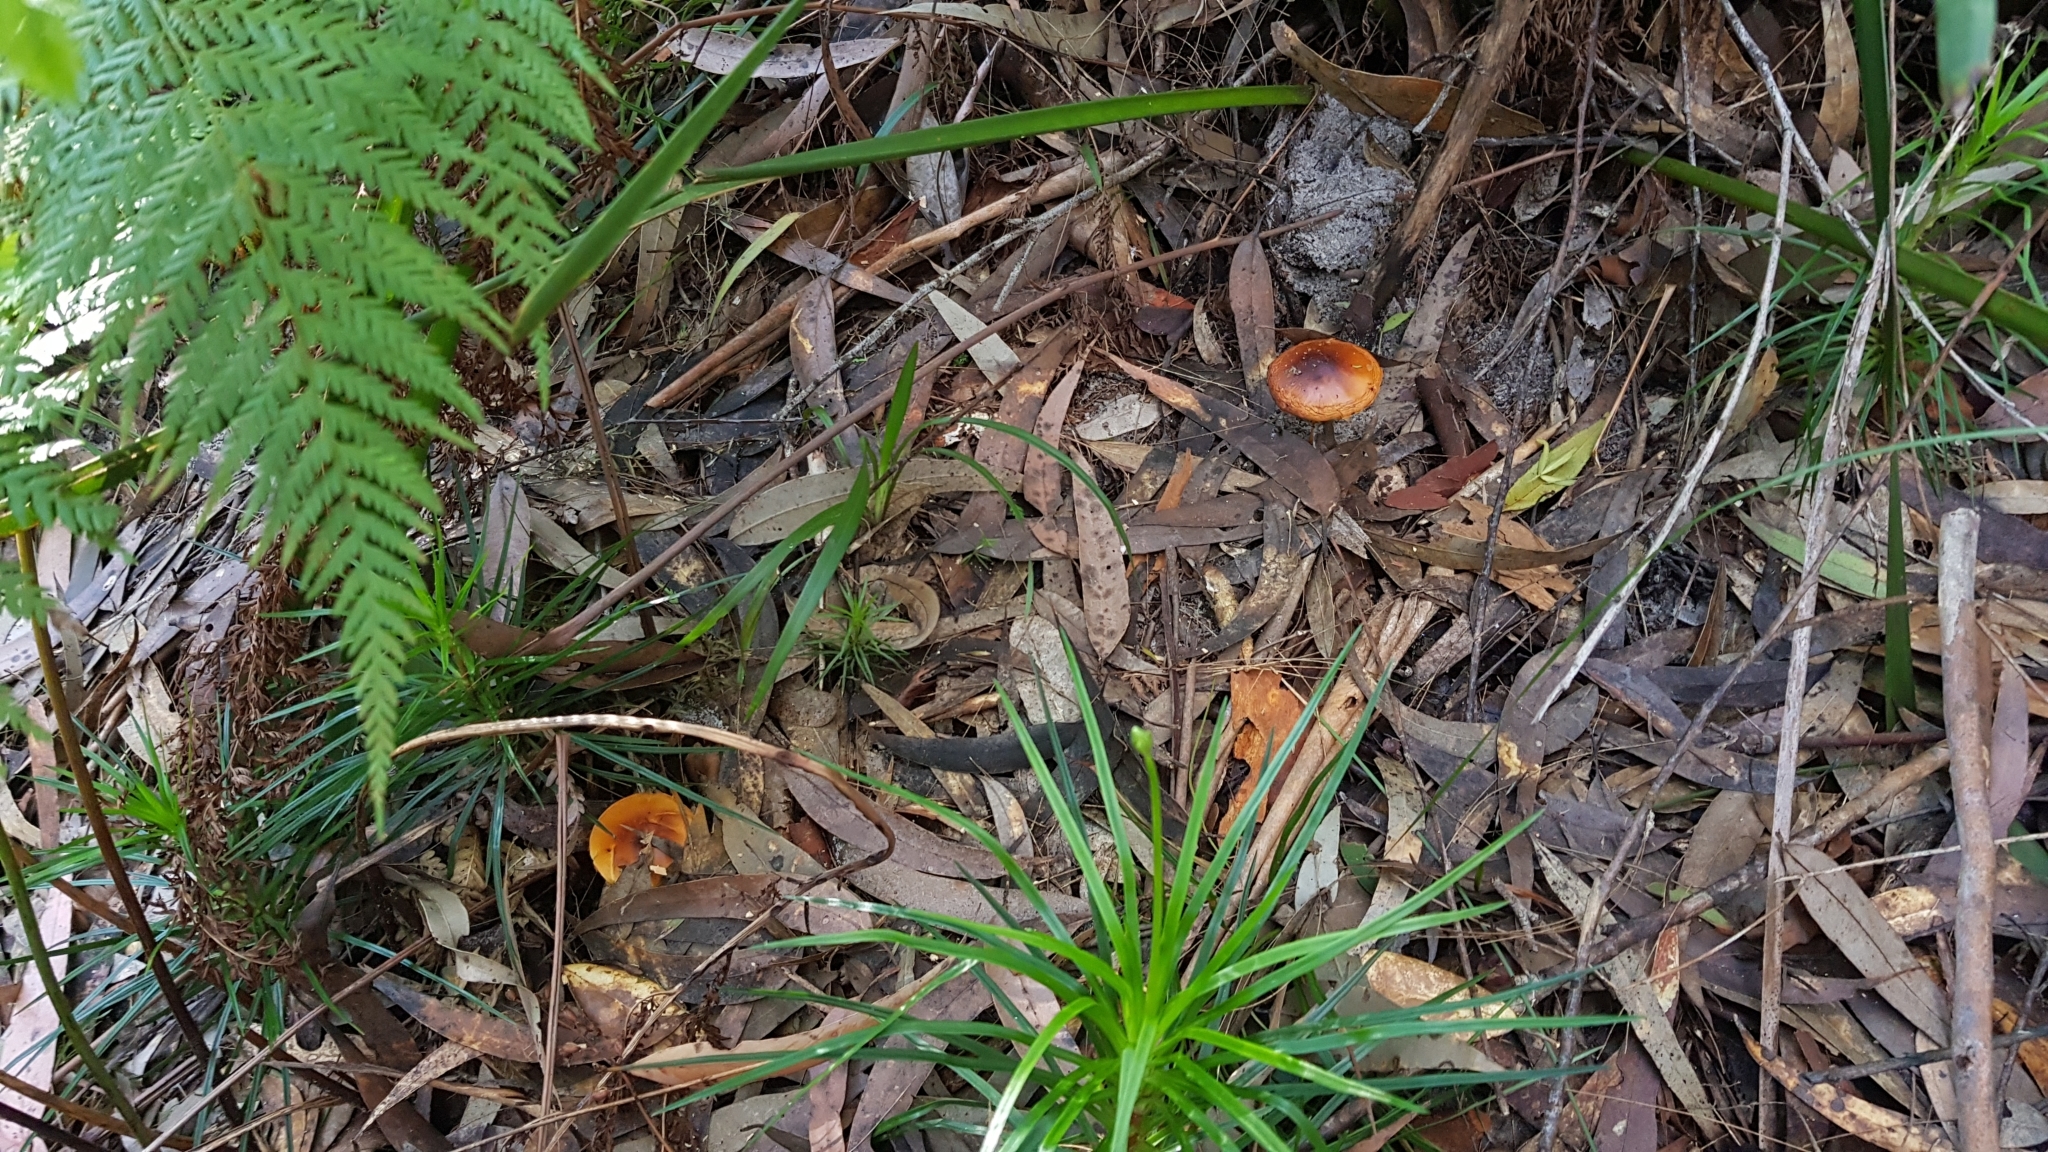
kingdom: Fungi
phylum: Basidiomycota
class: Agaricomycetes
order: Agaricales
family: Cortinariaceae
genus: Cortinarius
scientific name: Cortinarius sinapicolor
